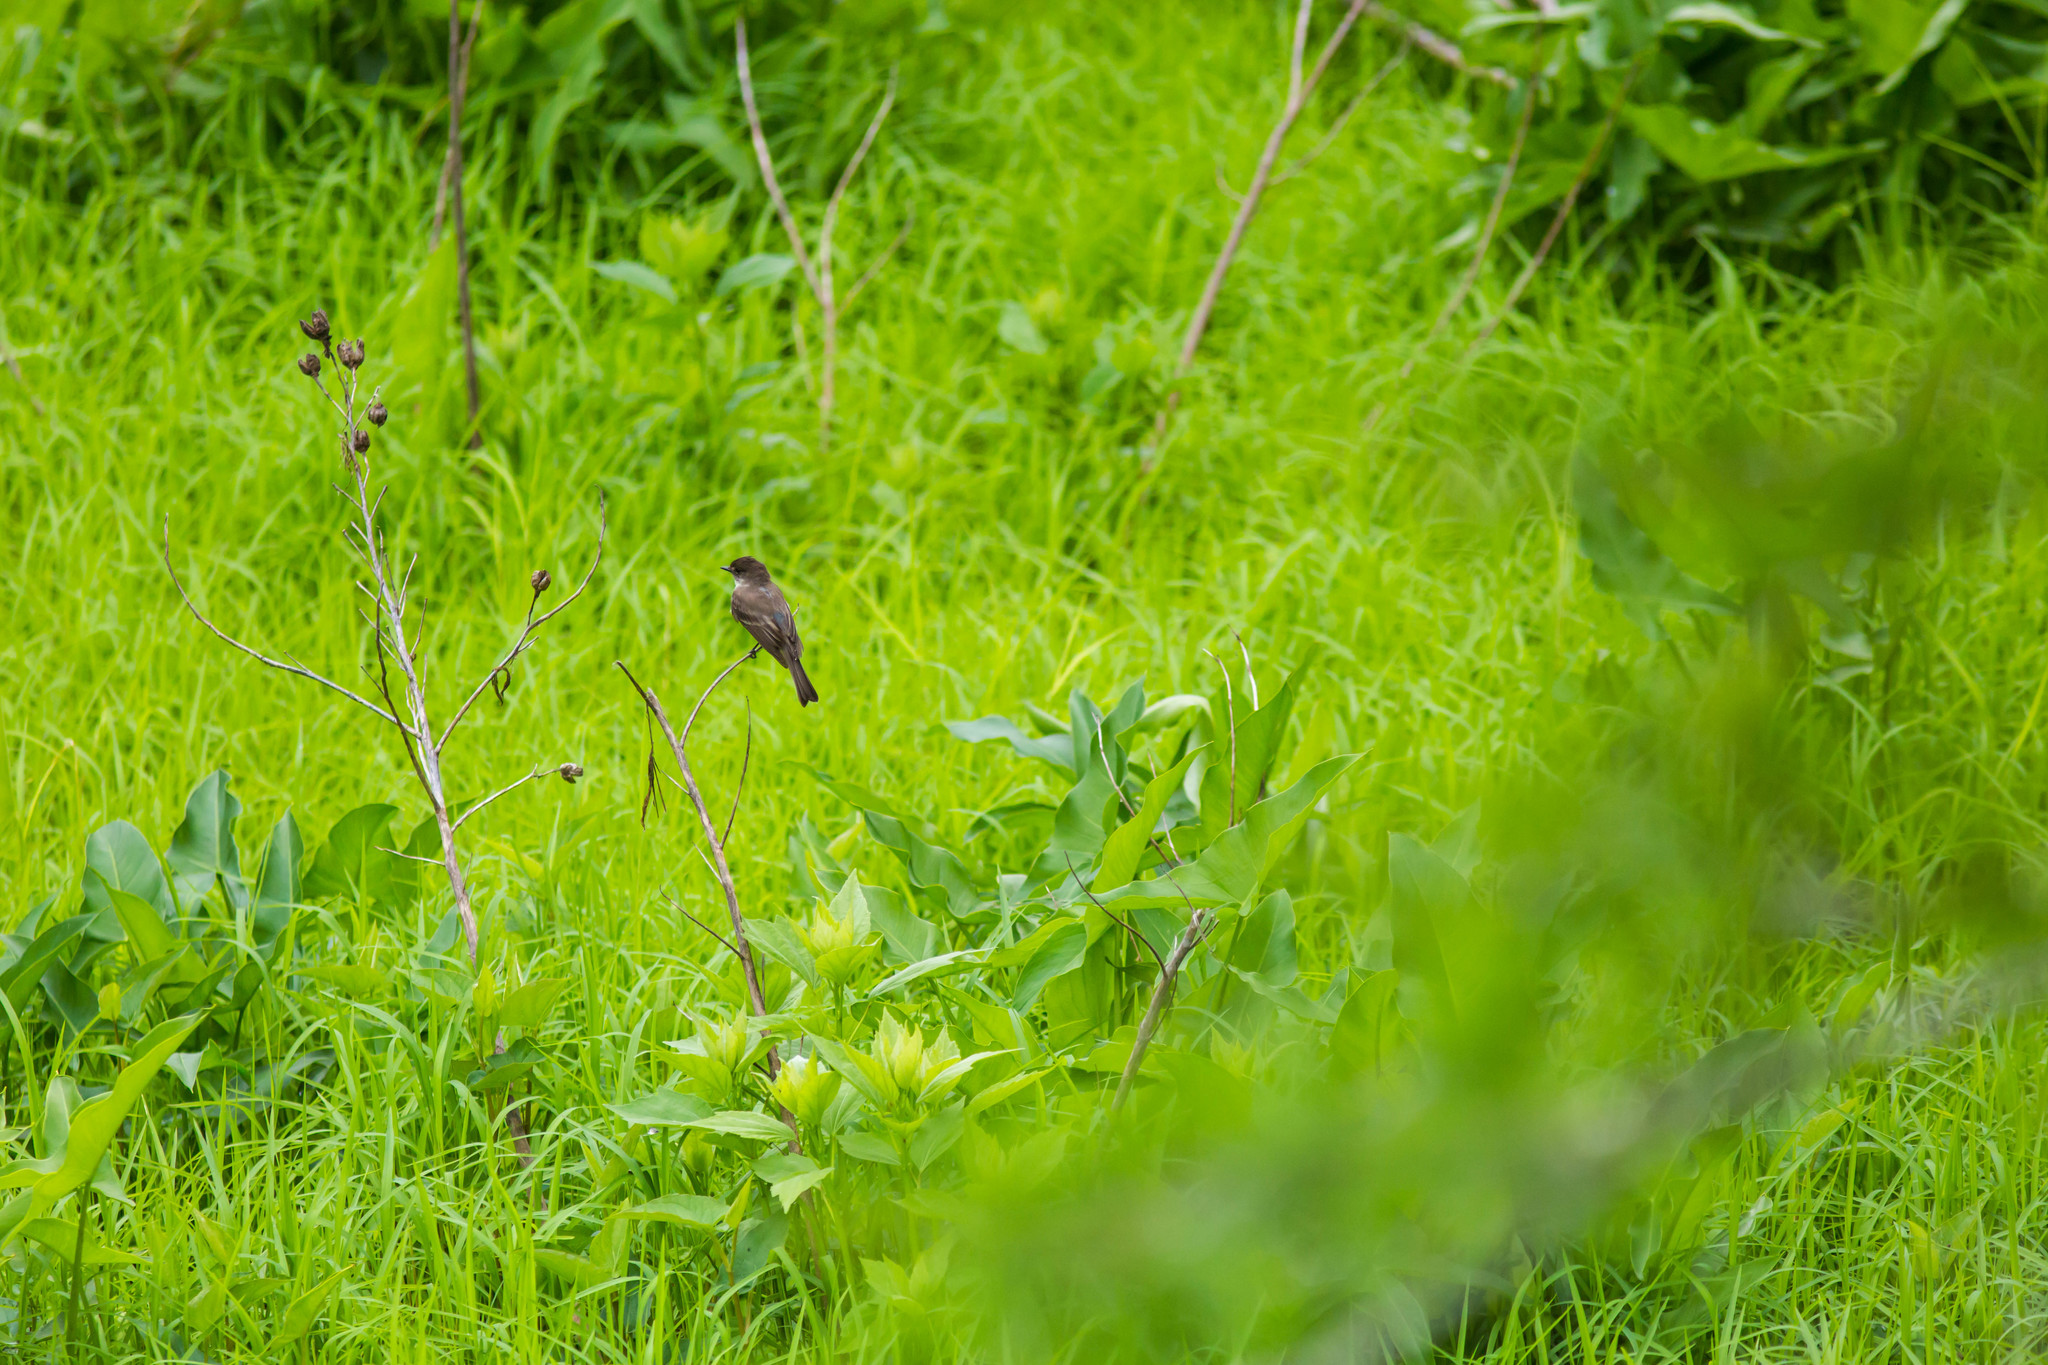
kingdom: Animalia
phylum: Chordata
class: Aves
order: Passeriformes
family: Tyrannidae
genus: Sayornis
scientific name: Sayornis phoebe
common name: Eastern phoebe
